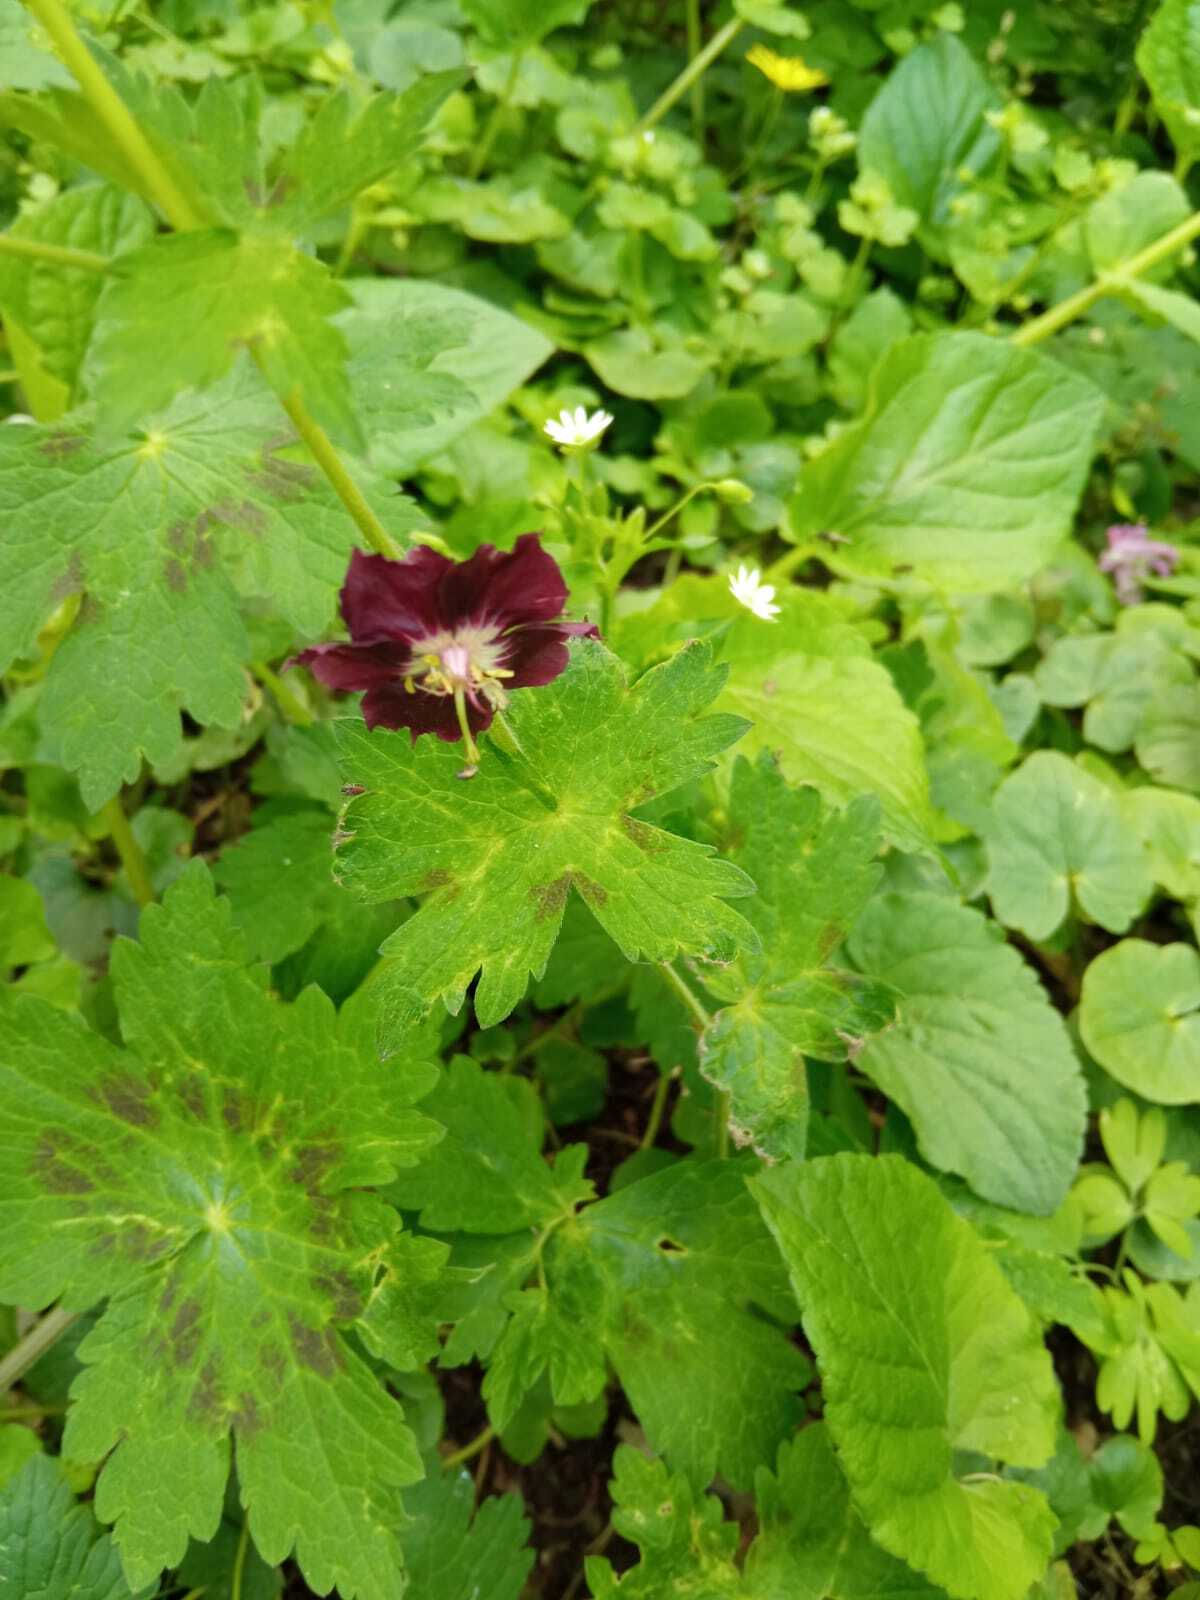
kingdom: Plantae
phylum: Tracheophyta
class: Magnoliopsida
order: Geraniales
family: Geraniaceae
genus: Geranium
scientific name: Geranium phaeum
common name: Dusky crane's-bill
